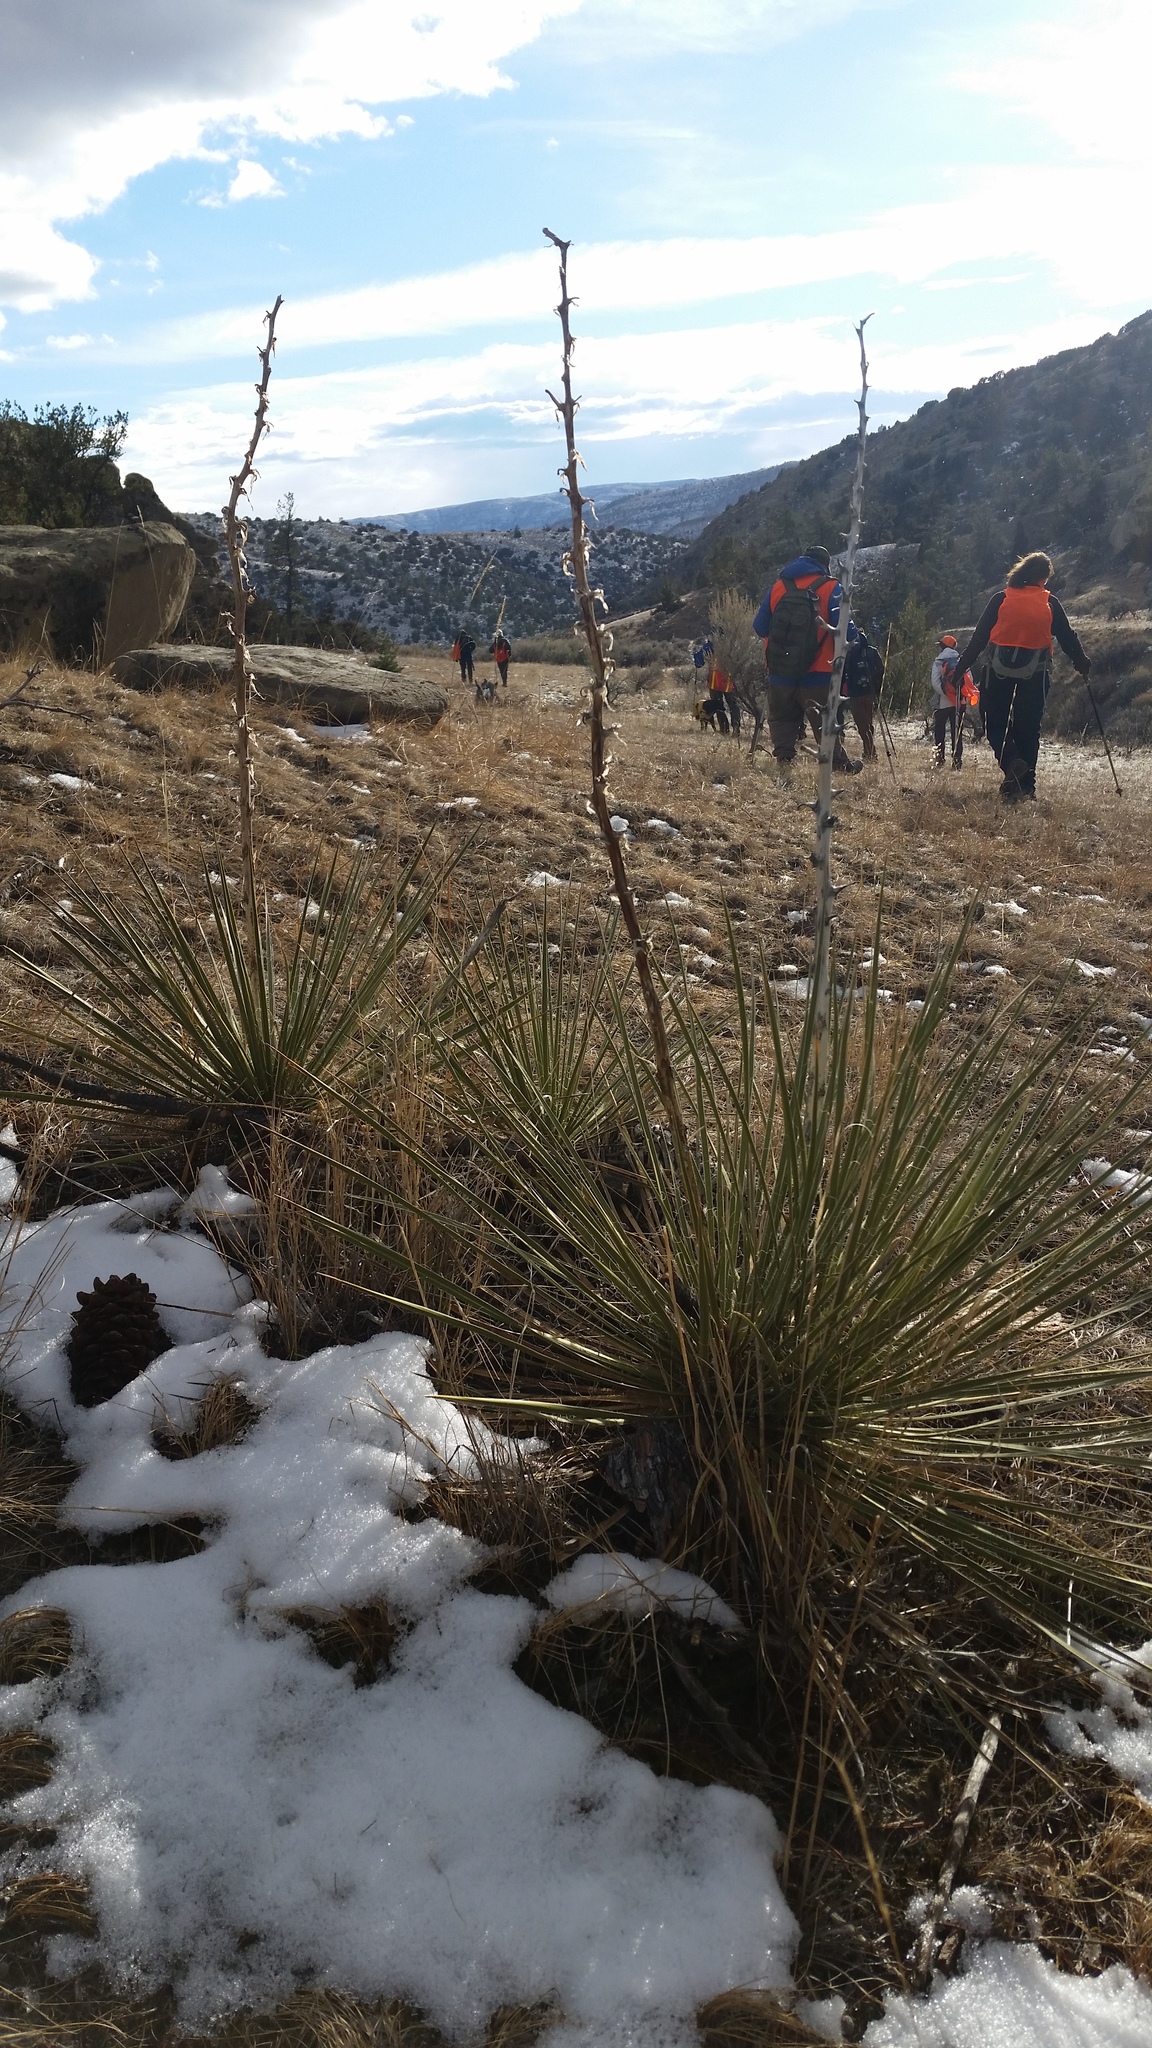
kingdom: Plantae
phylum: Tracheophyta
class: Liliopsida
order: Asparagales
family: Asparagaceae
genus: Yucca
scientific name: Yucca glauca
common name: Great plains yucca
